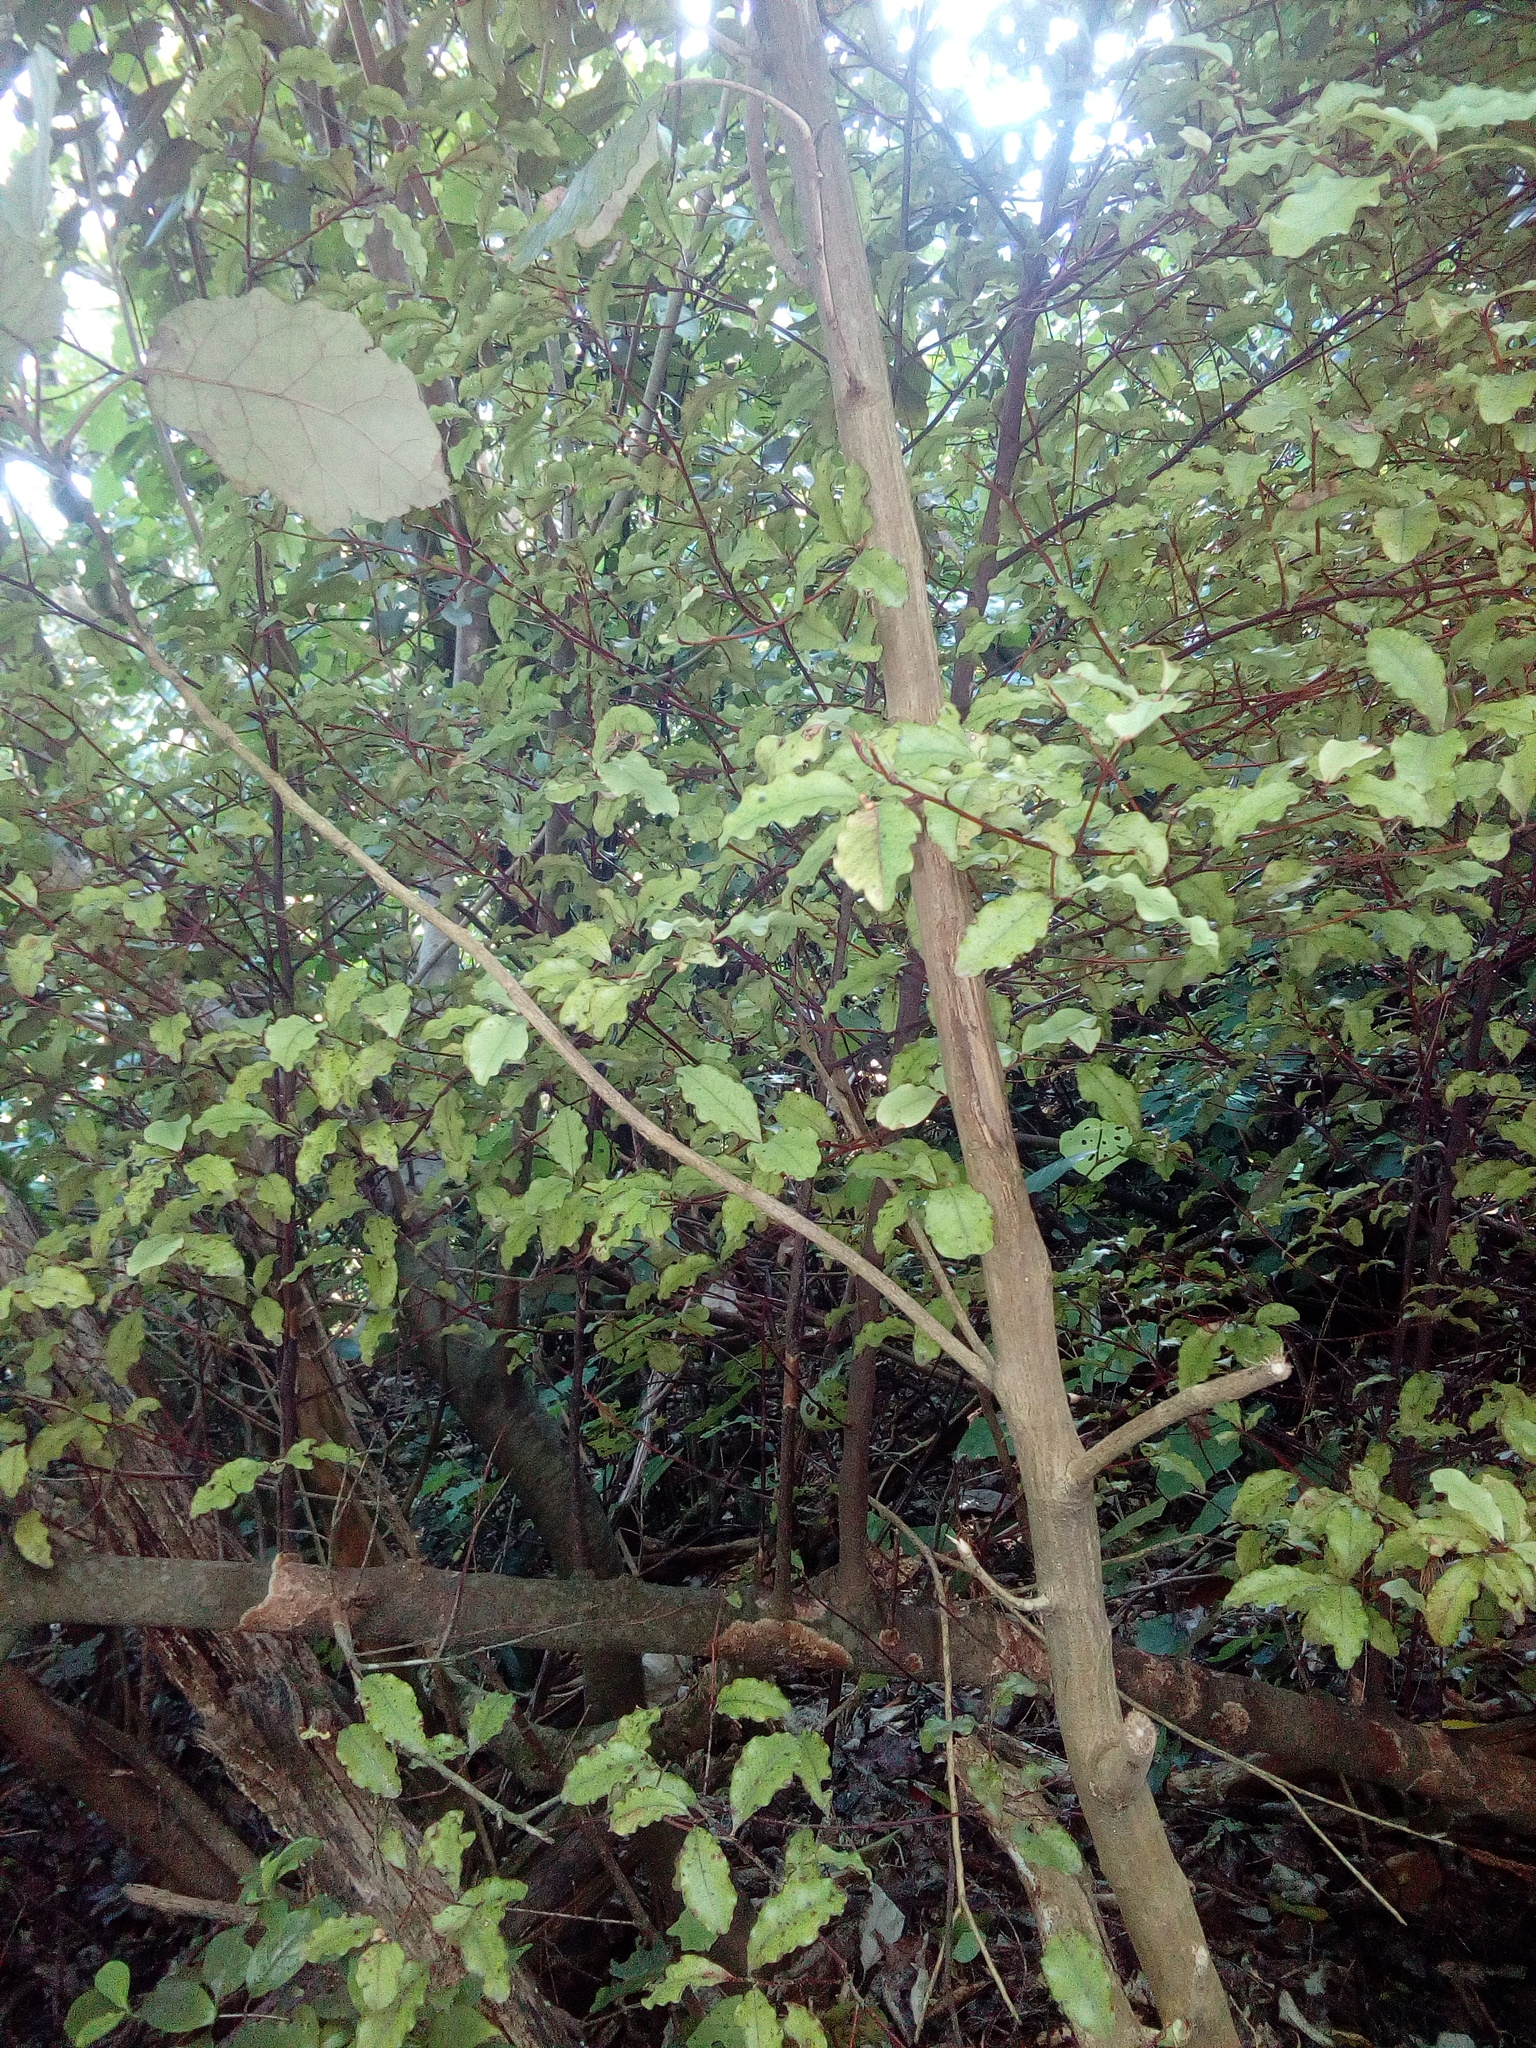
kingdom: Plantae
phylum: Tracheophyta
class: Magnoliopsida
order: Ericales
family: Primulaceae
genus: Myrsine
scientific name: Myrsine australis
